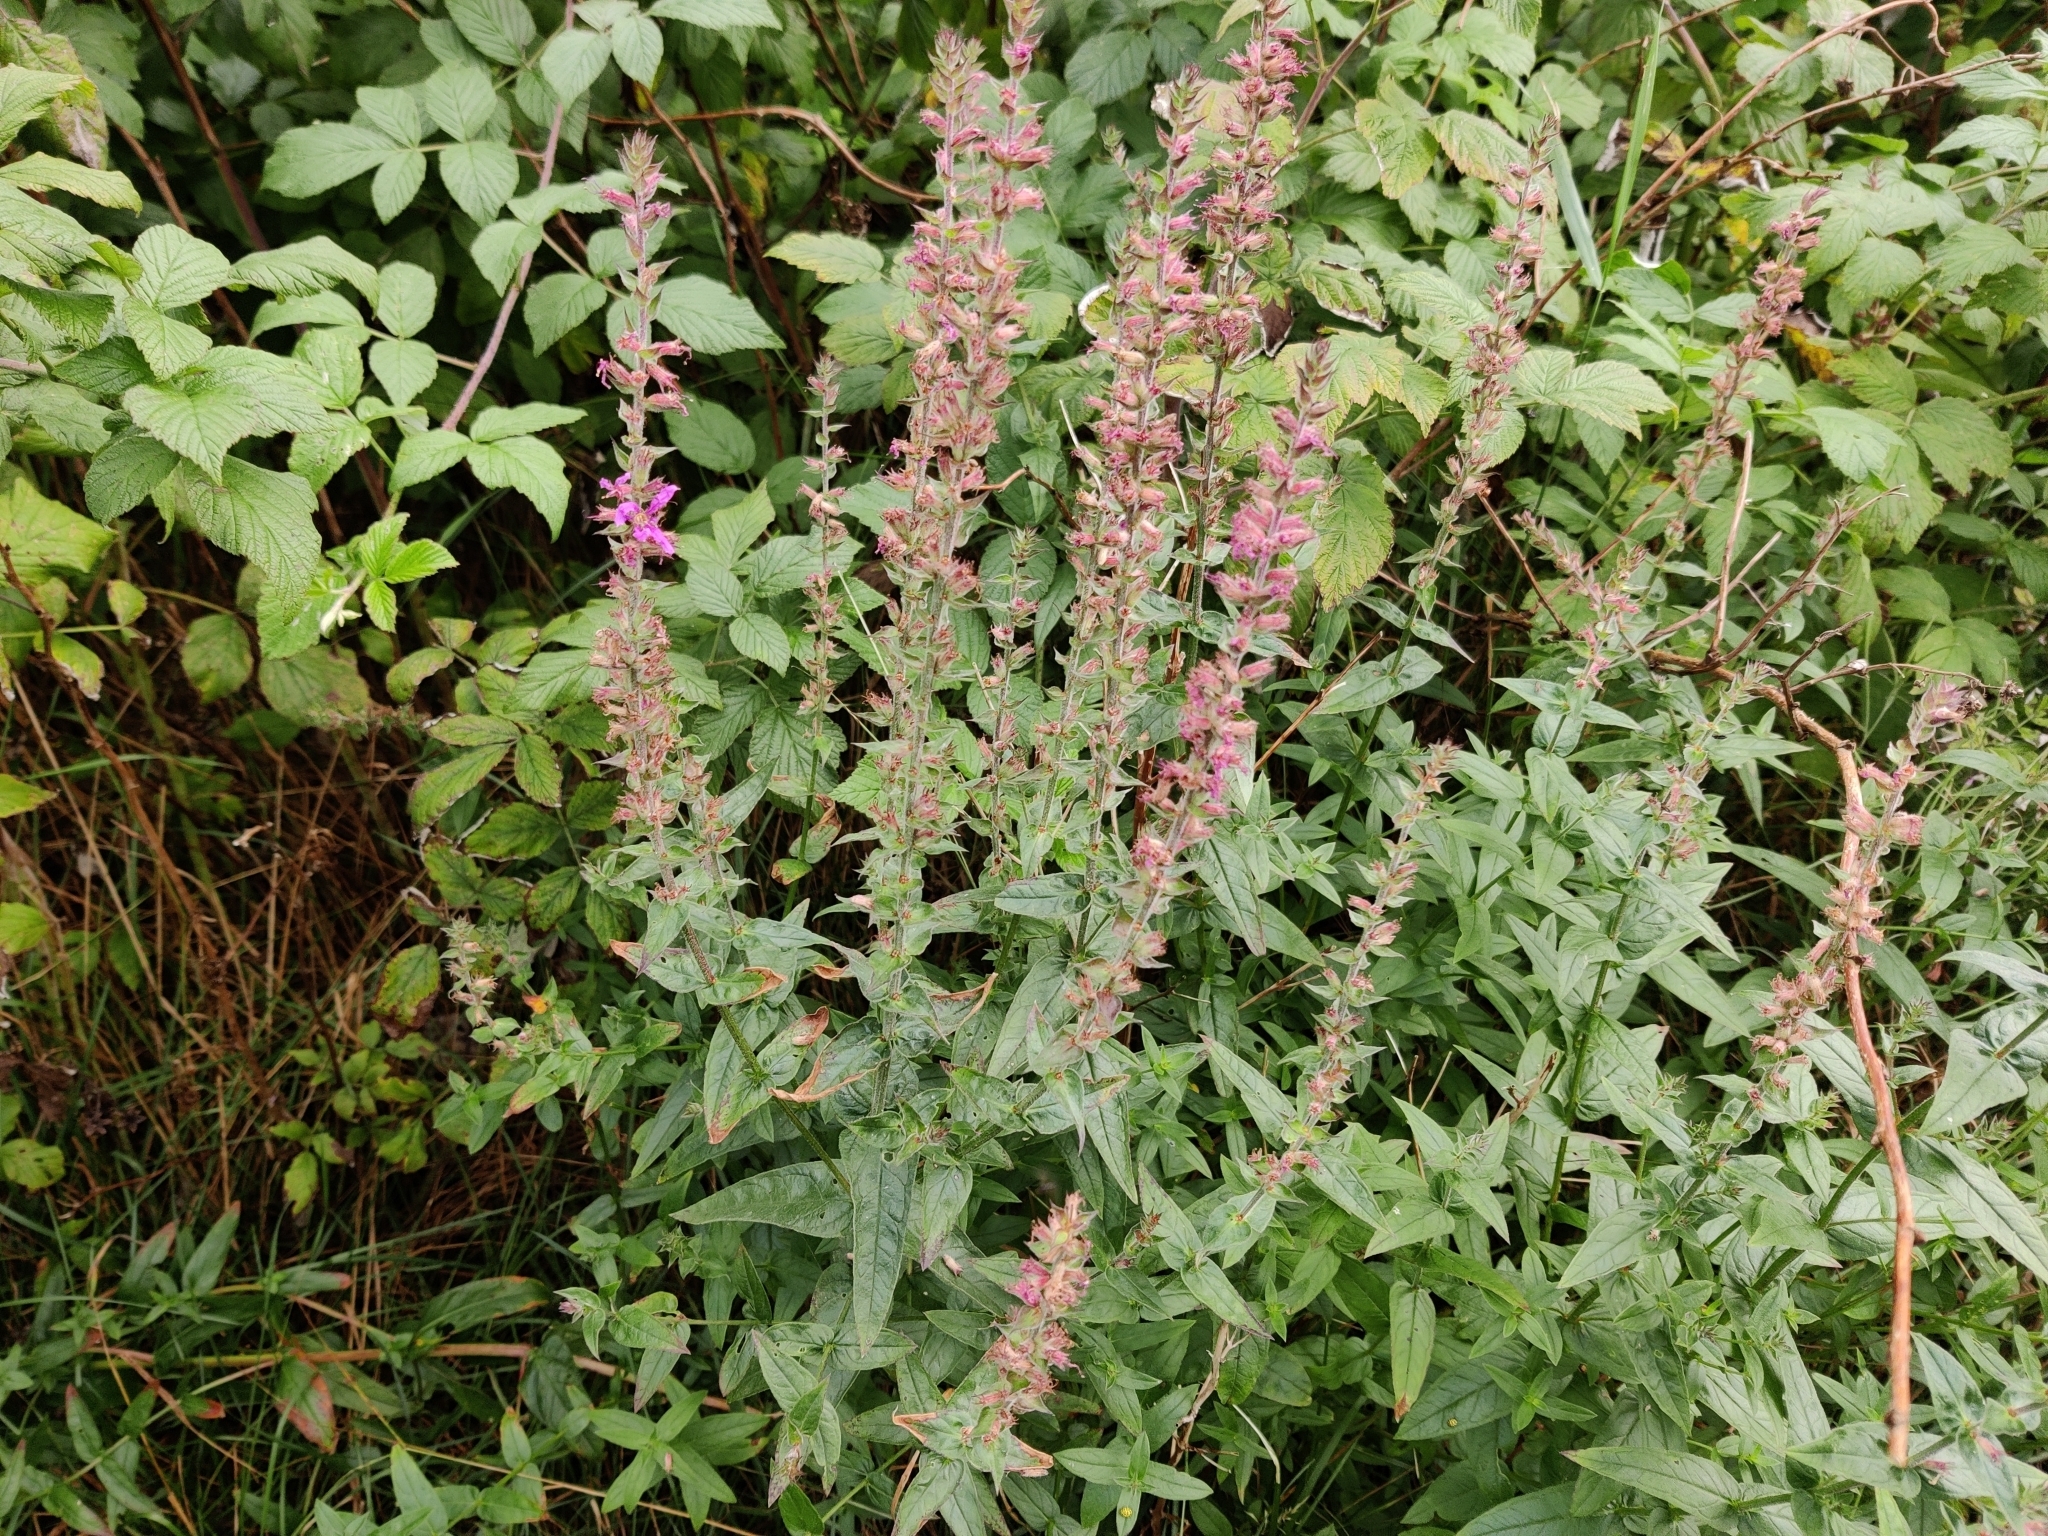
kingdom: Plantae
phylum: Tracheophyta
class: Magnoliopsida
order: Myrtales
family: Lythraceae
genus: Lythrum
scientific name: Lythrum salicaria
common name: Purple loosestrife
